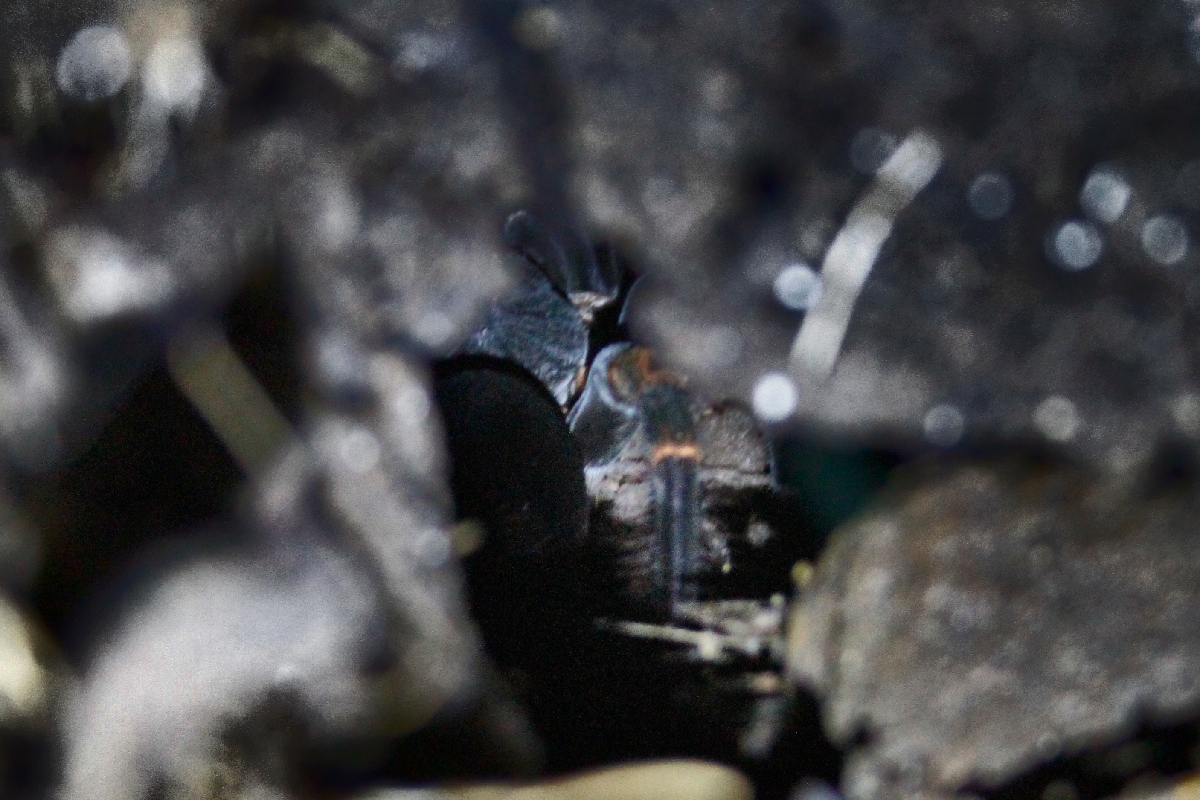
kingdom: Animalia
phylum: Arthropoda
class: Arachnida
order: Araneae
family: Theraphosidae
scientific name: Theraphosidae
